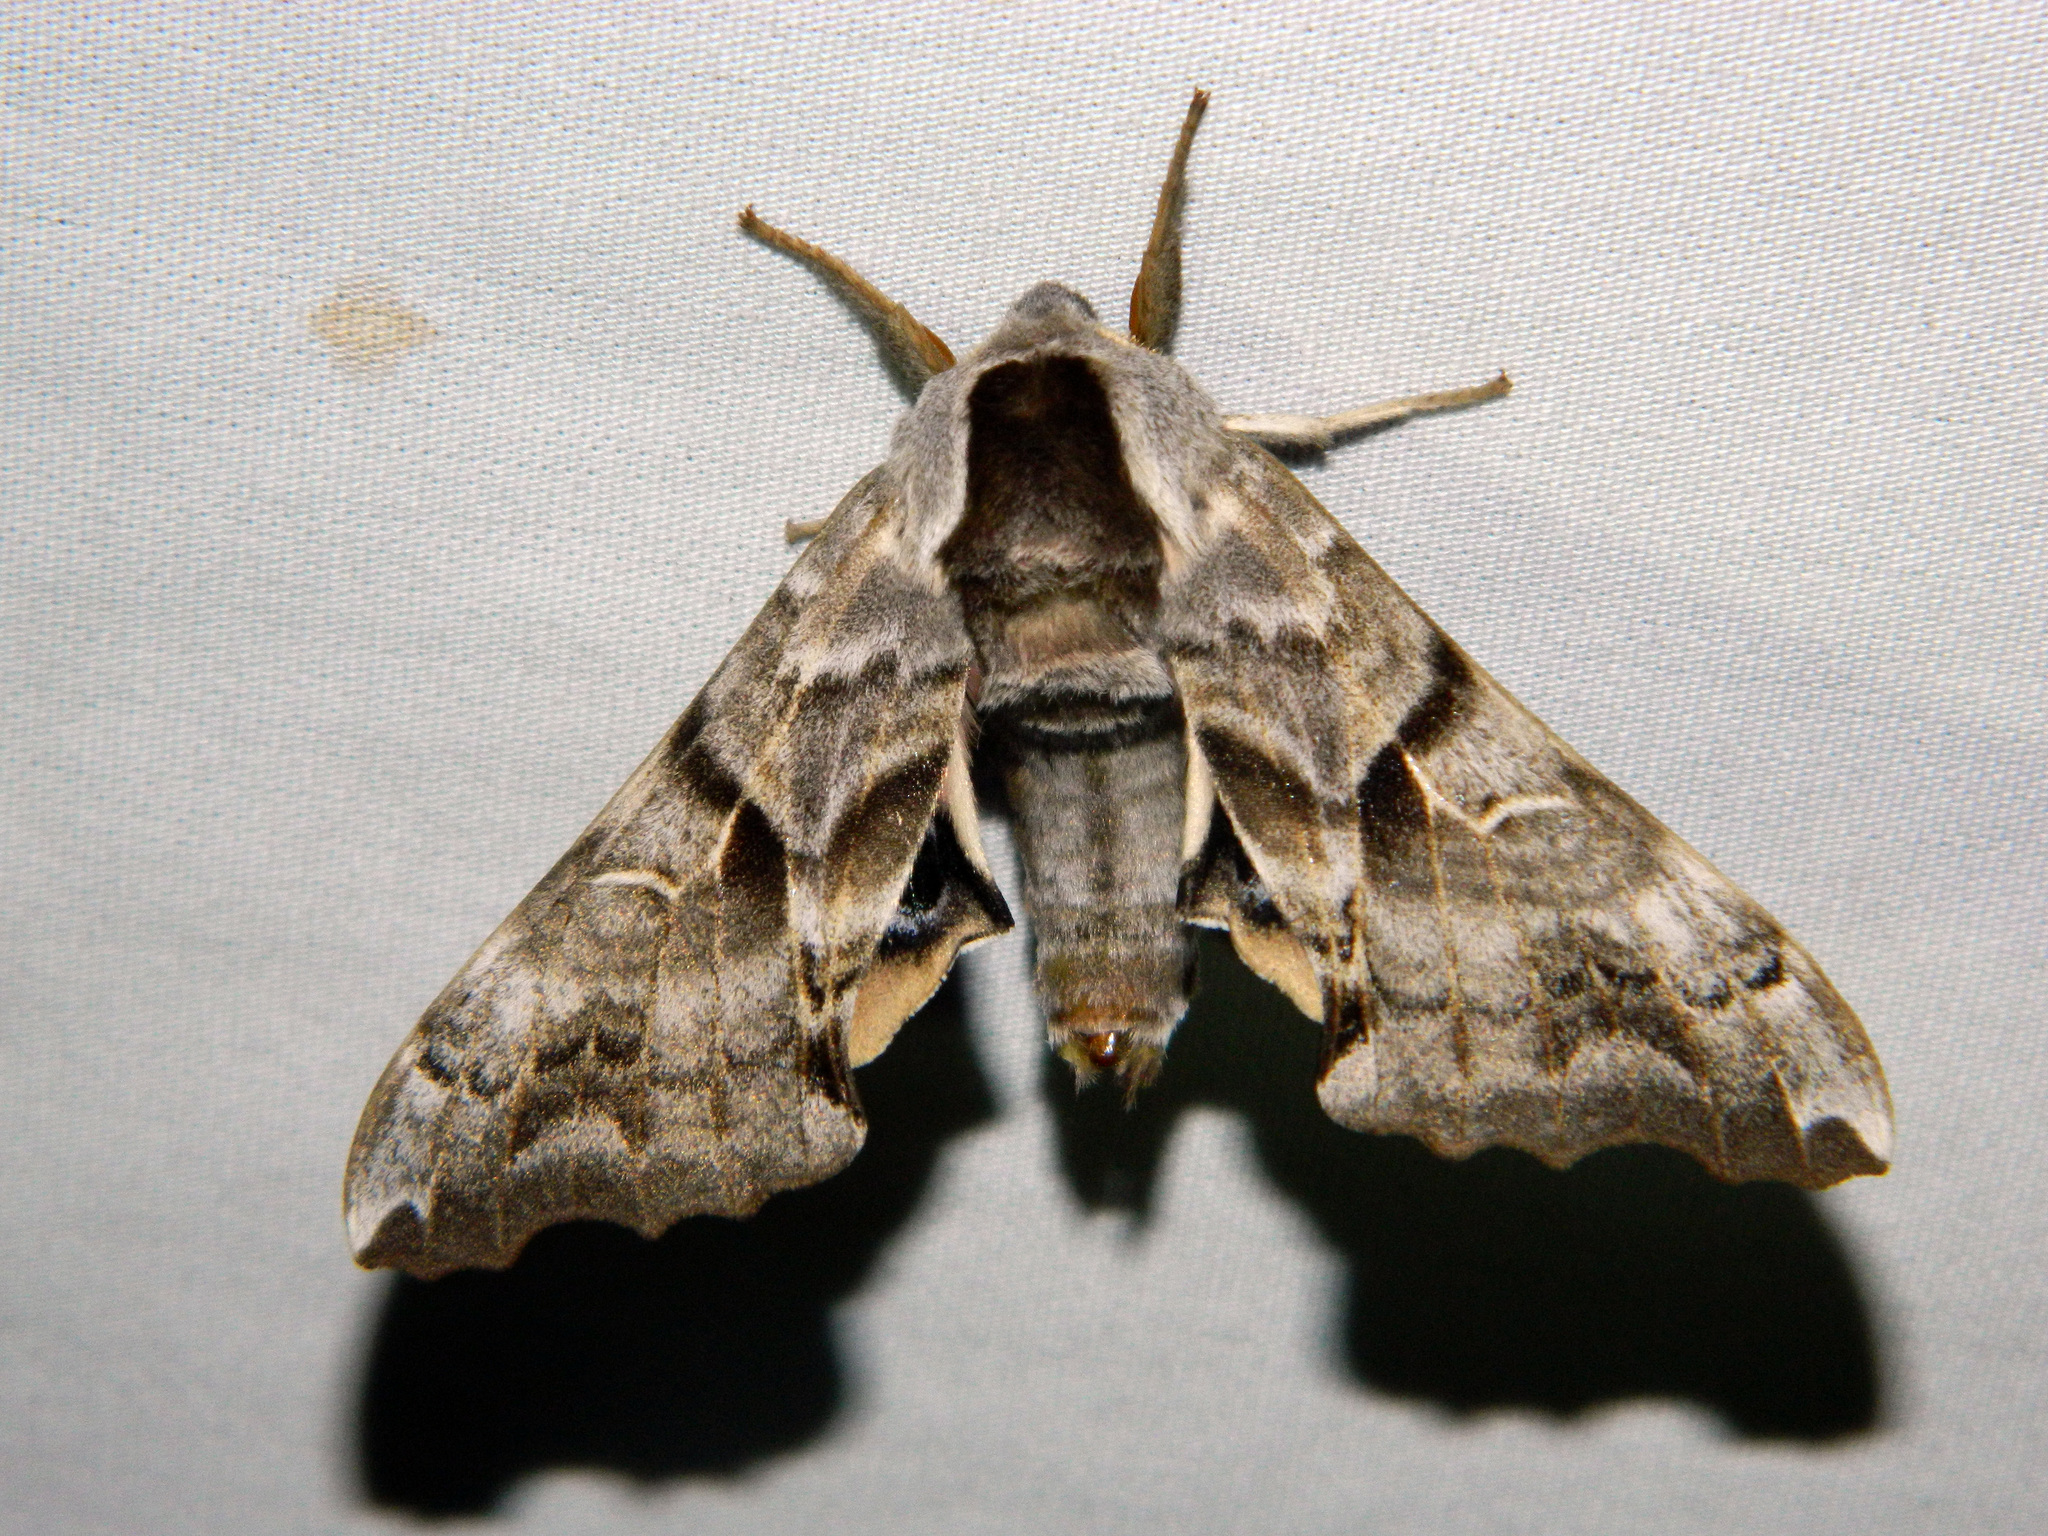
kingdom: Animalia
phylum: Arthropoda
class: Insecta
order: Lepidoptera
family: Sphingidae
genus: Smerinthus
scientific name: Smerinthus cerisyi
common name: Cerisy's sphinx moth
